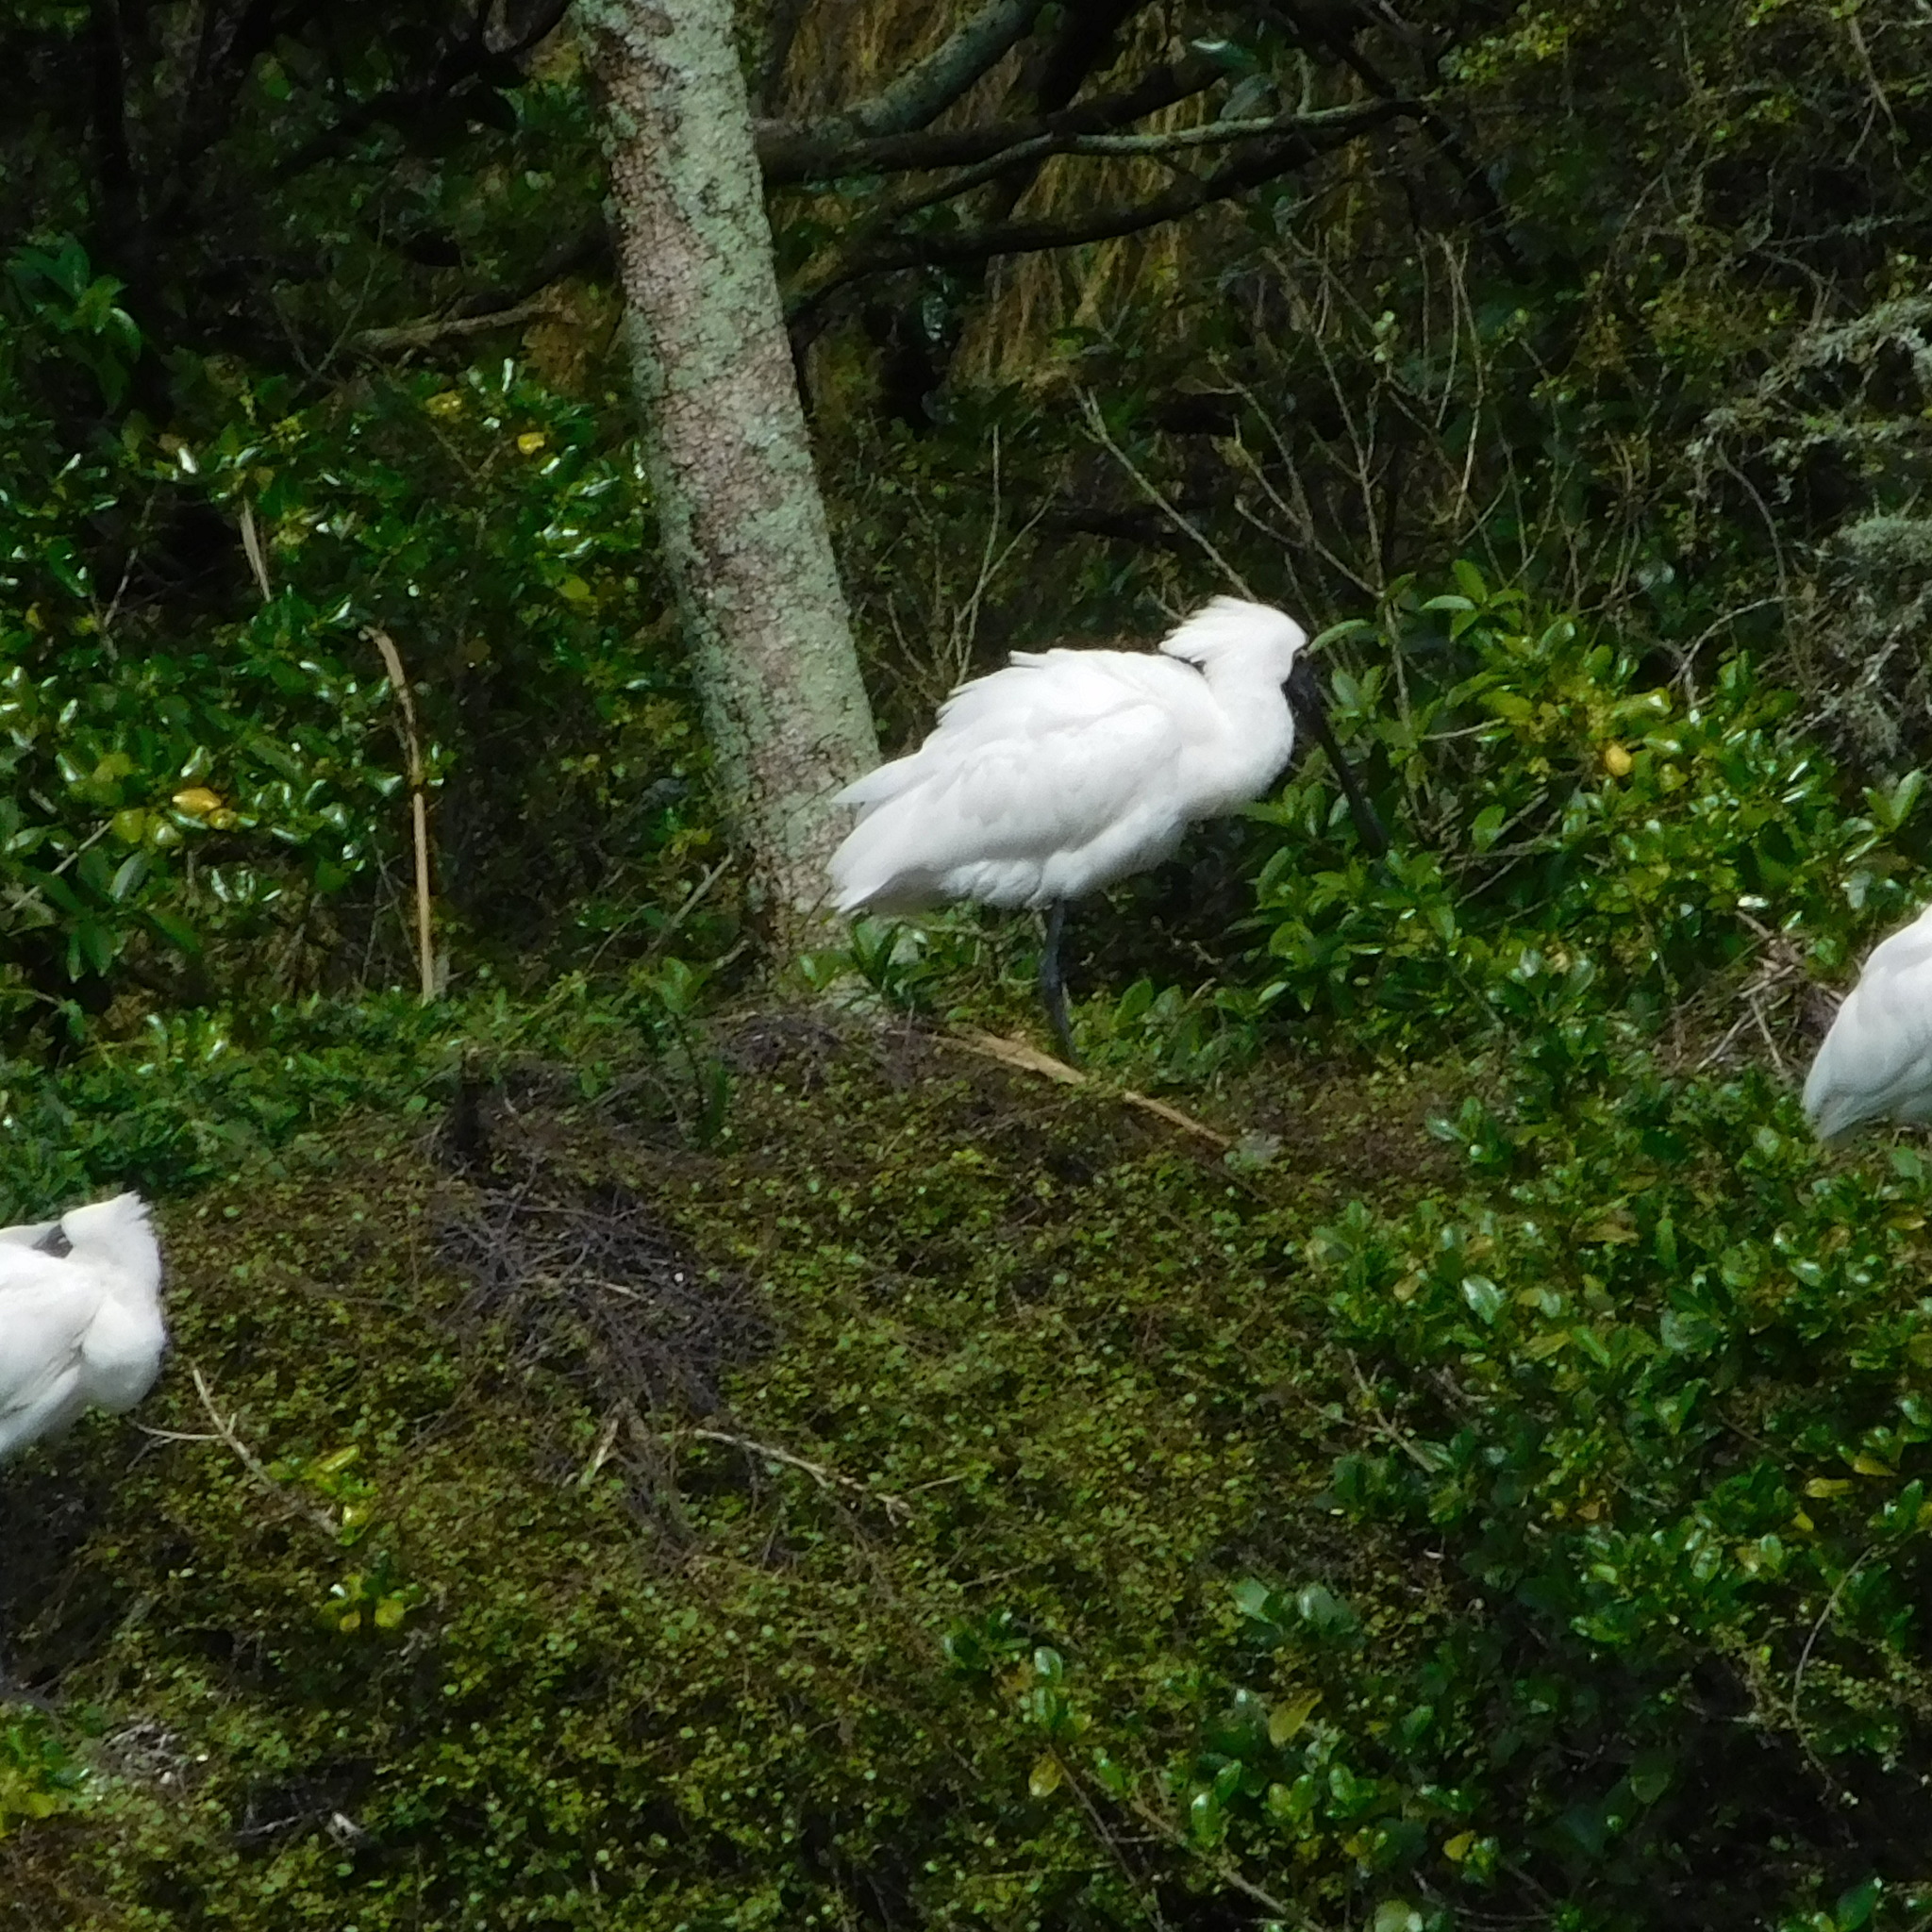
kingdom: Animalia
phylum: Chordata
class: Aves
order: Pelecaniformes
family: Threskiornithidae
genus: Platalea
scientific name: Platalea regia
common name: Royal spoonbill
